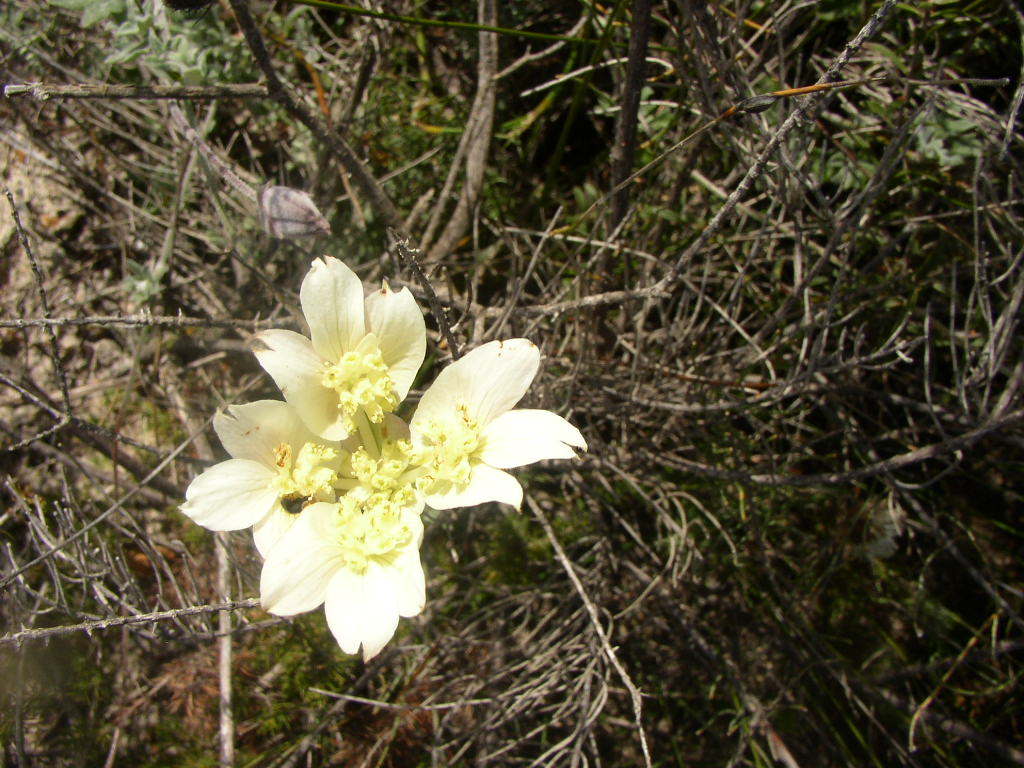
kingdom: Plantae
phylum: Tracheophyta
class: Magnoliopsida
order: Apiales
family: Apiaceae
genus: Xanthosia
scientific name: Xanthosia tomentosa
